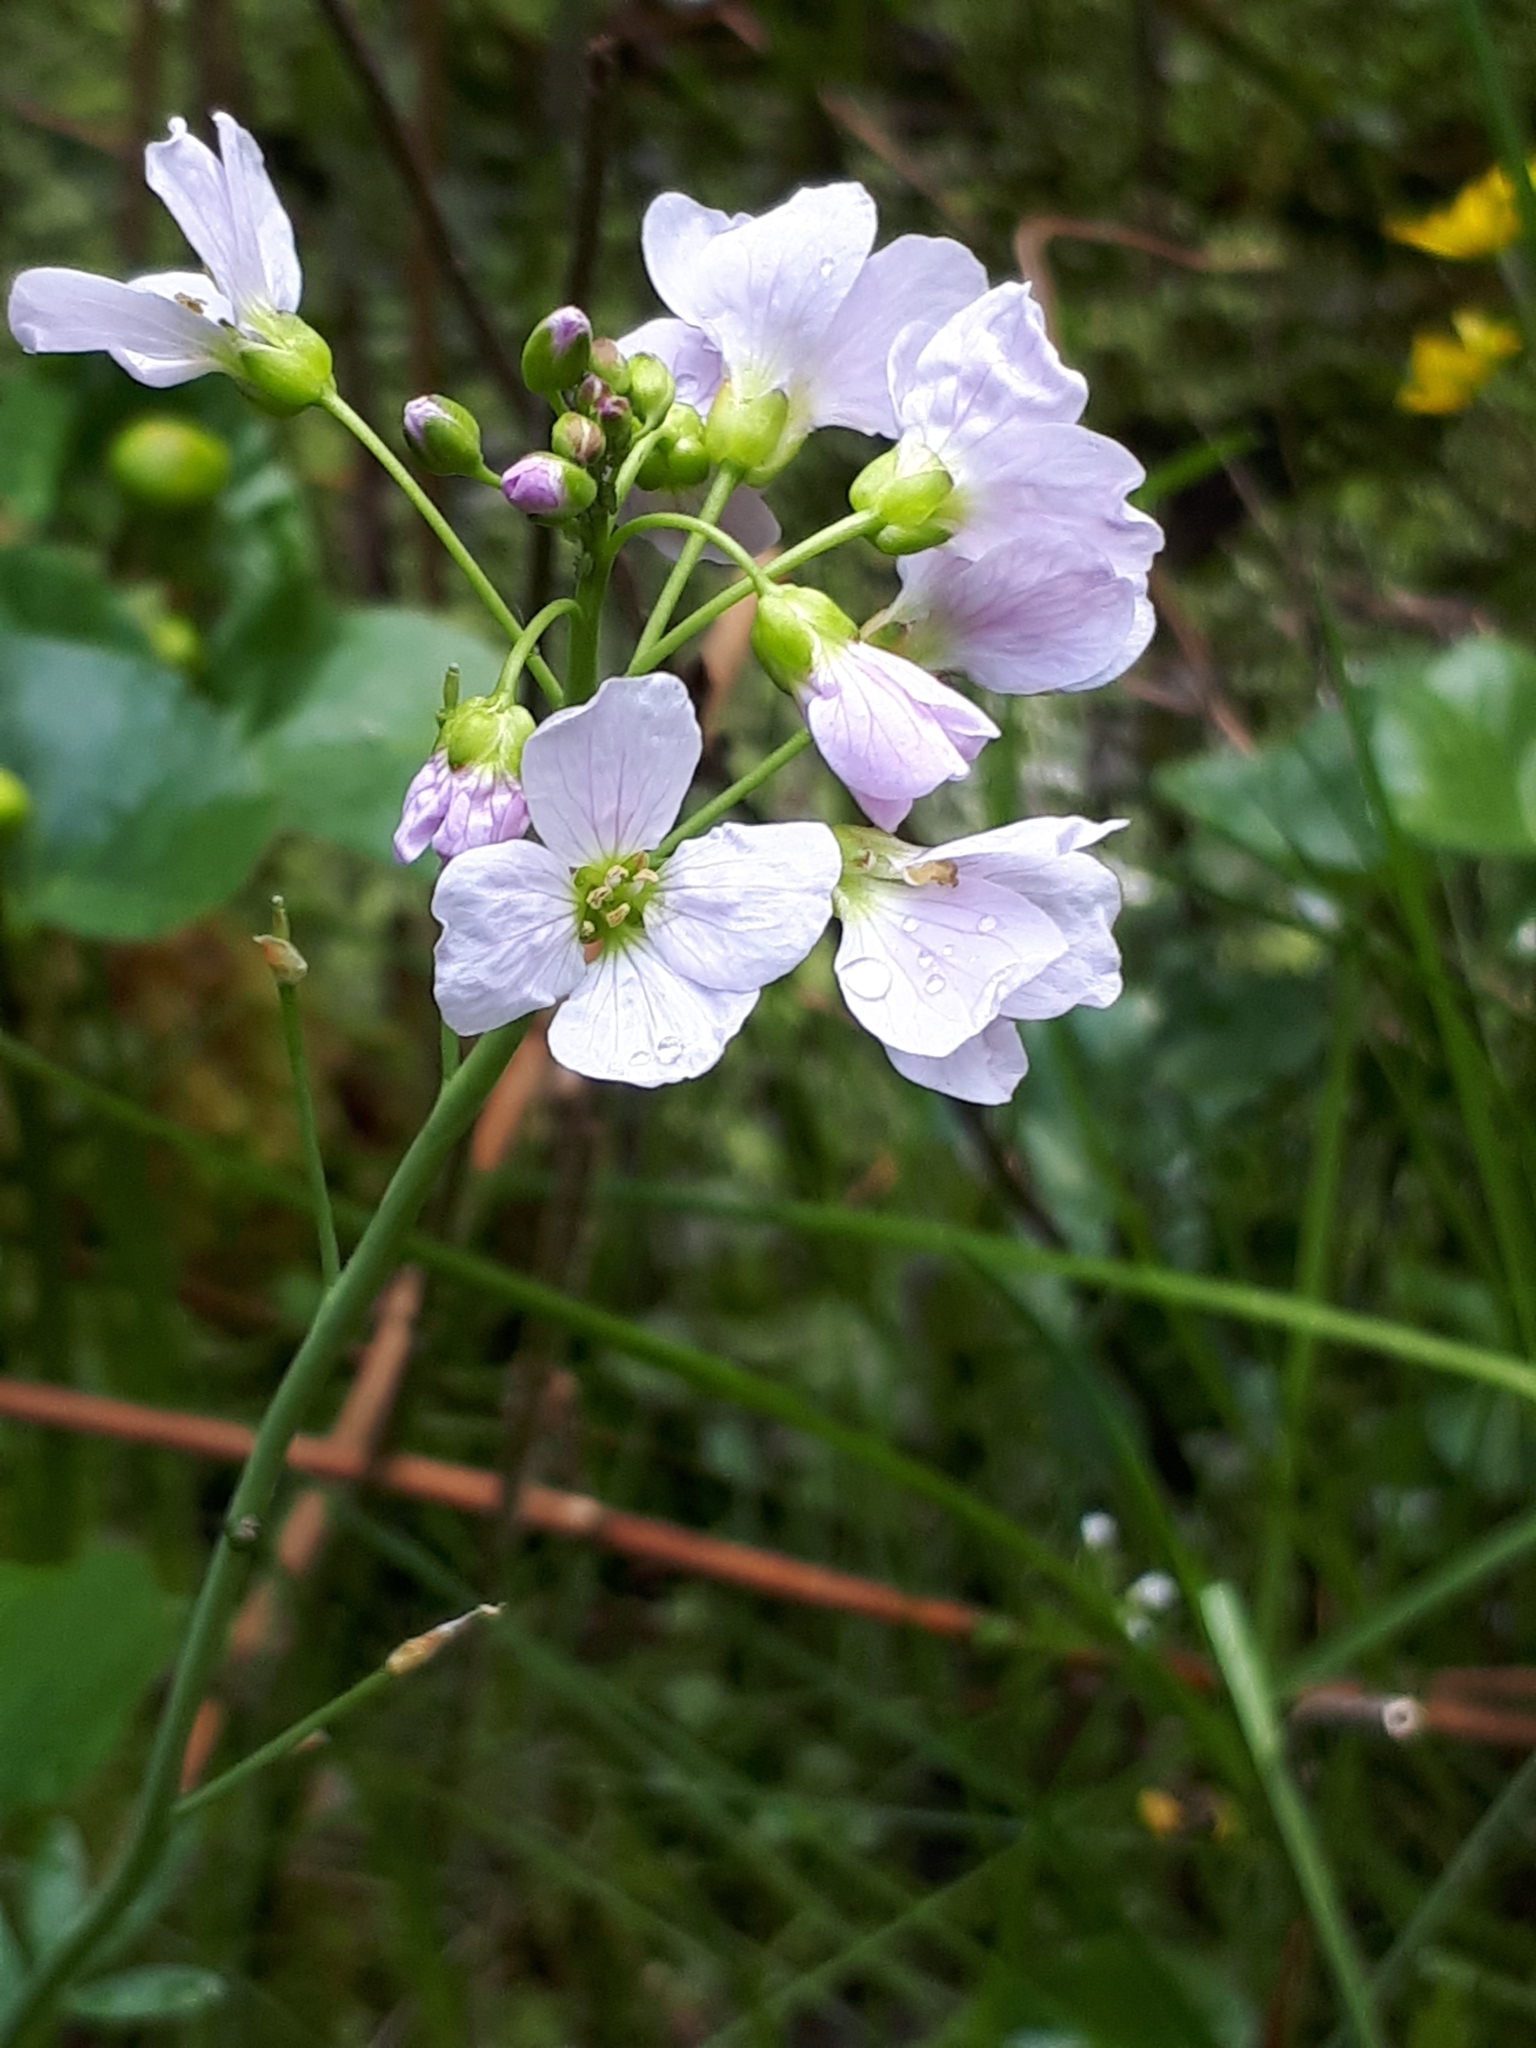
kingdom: Plantae
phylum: Tracheophyta
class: Magnoliopsida
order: Brassicales
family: Brassicaceae
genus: Cardamine
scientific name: Cardamine pratensis
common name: Cuckoo flower
